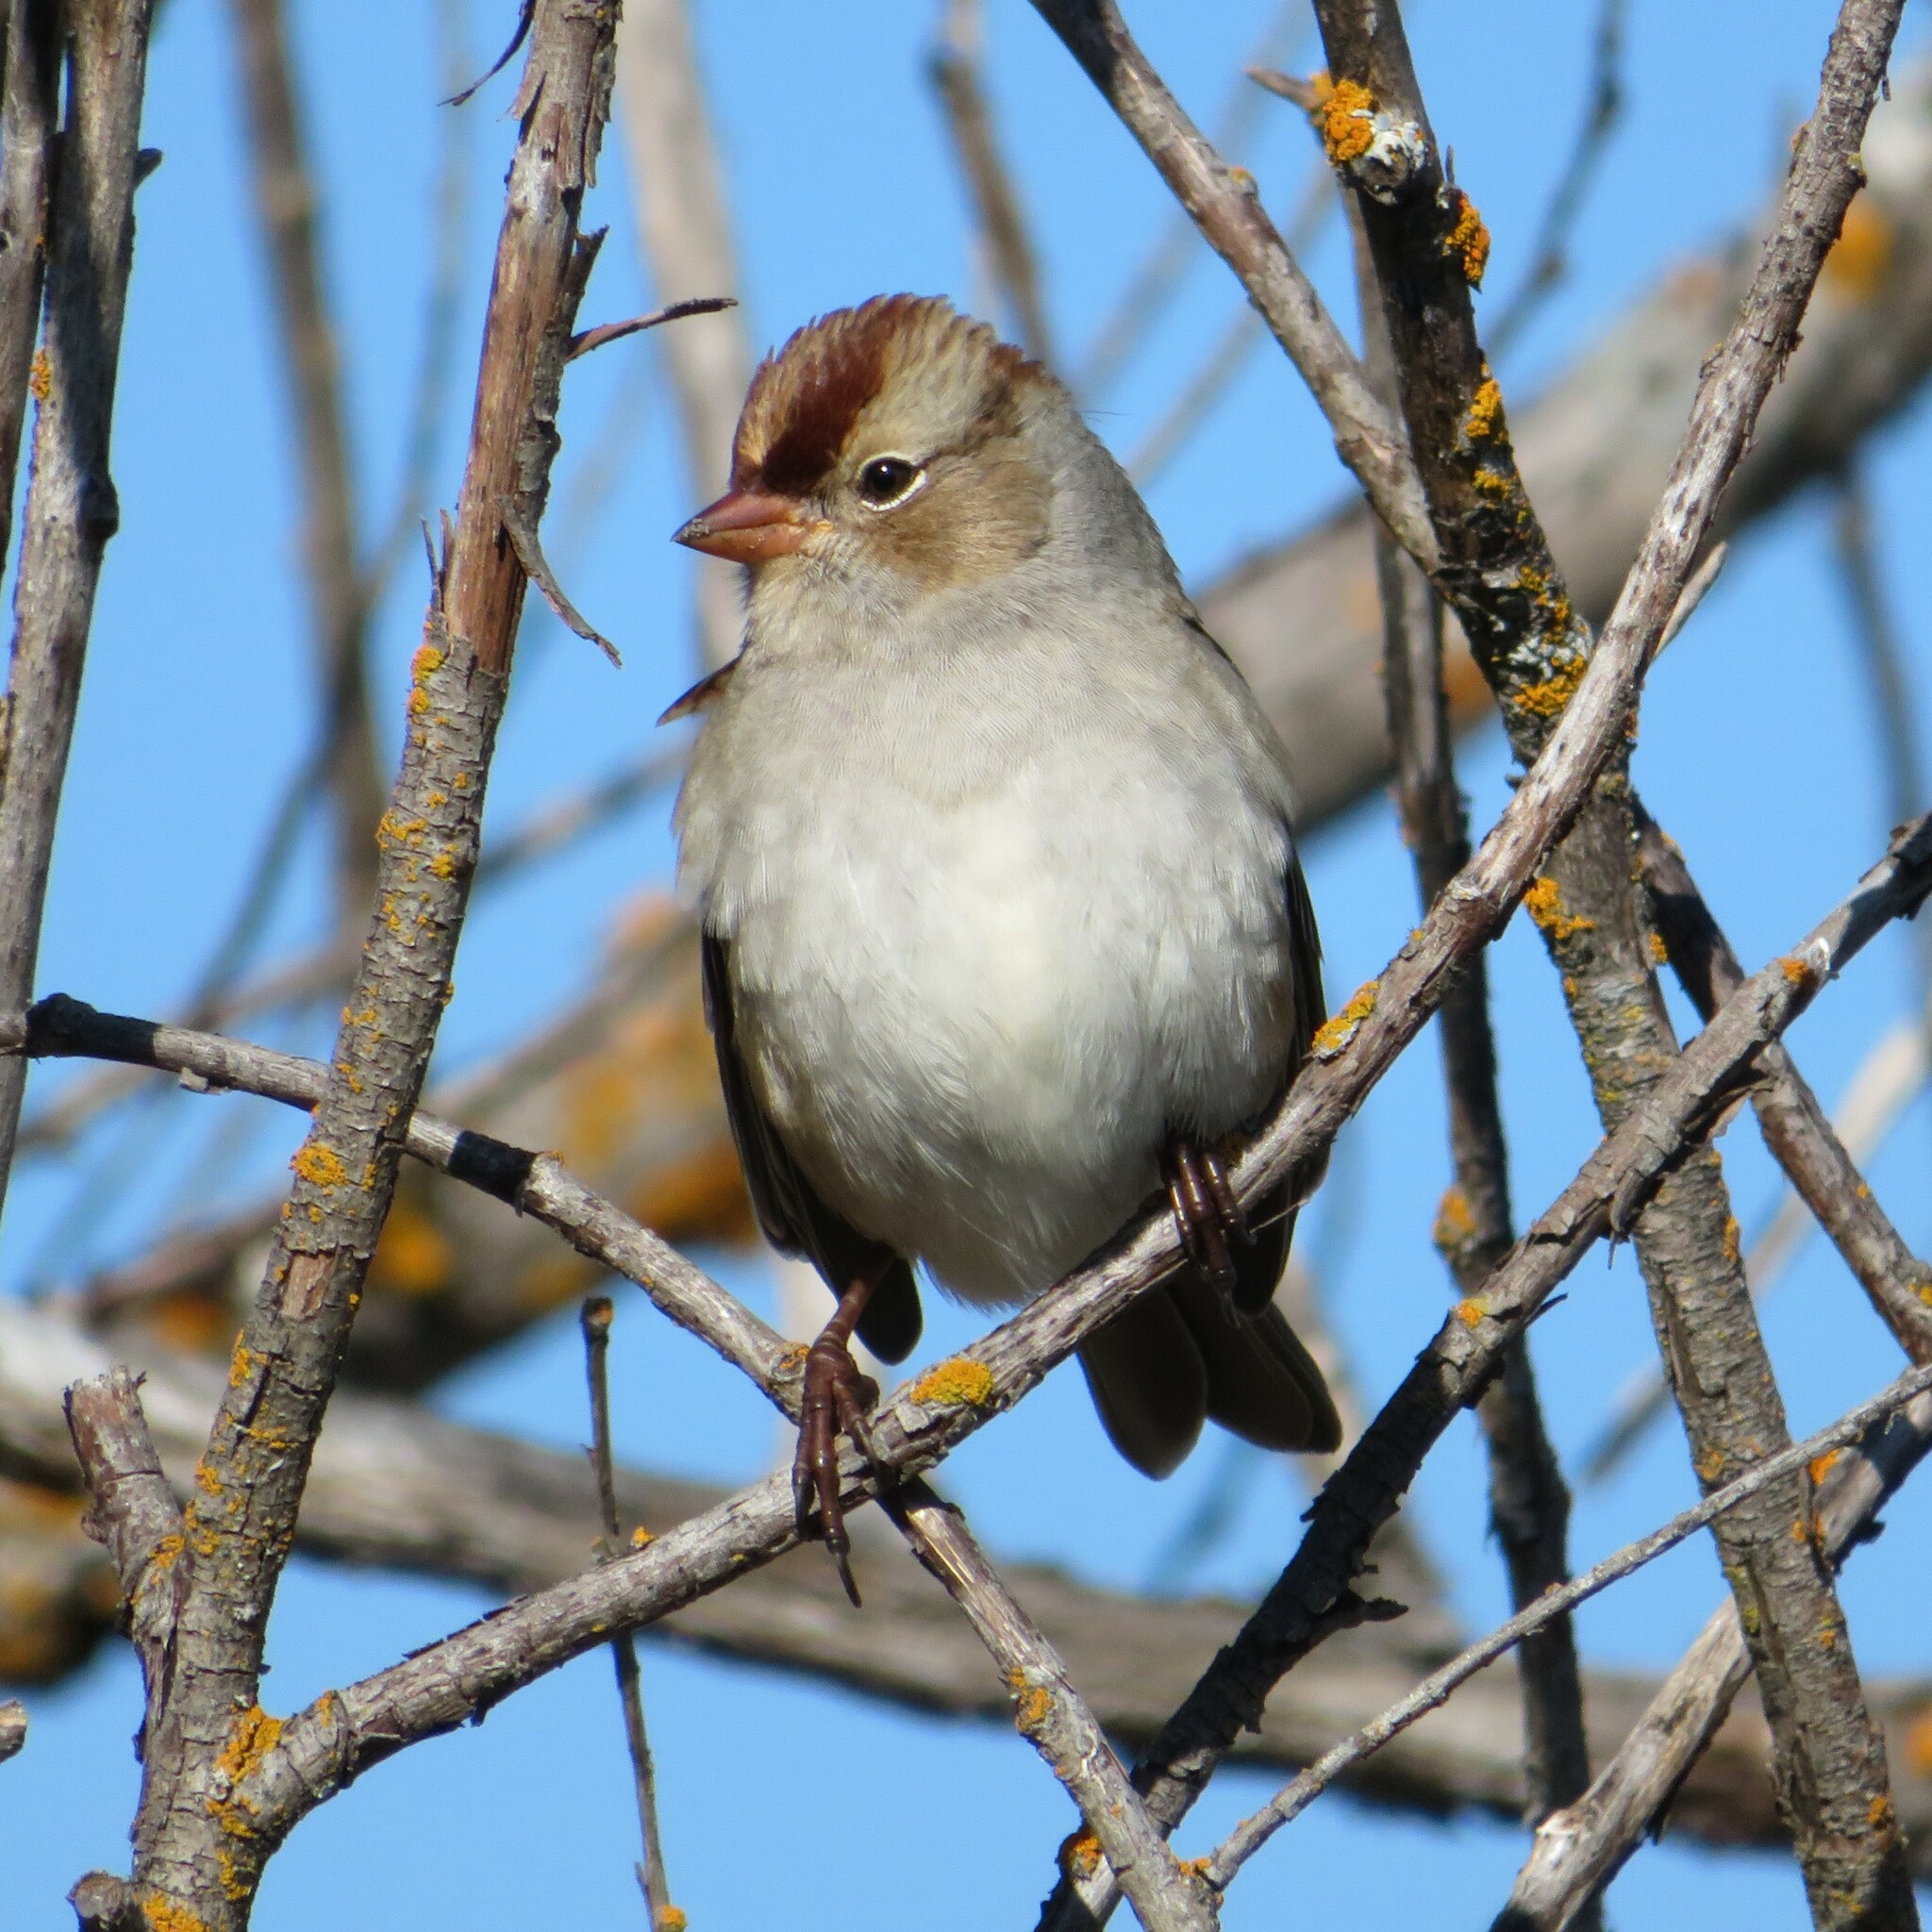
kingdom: Animalia
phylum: Chordata
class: Aves
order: Passeriformes
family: Passerellidae
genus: Zonotrichia
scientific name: Zonotrichia leucophrys
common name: White-crowned sparrow
